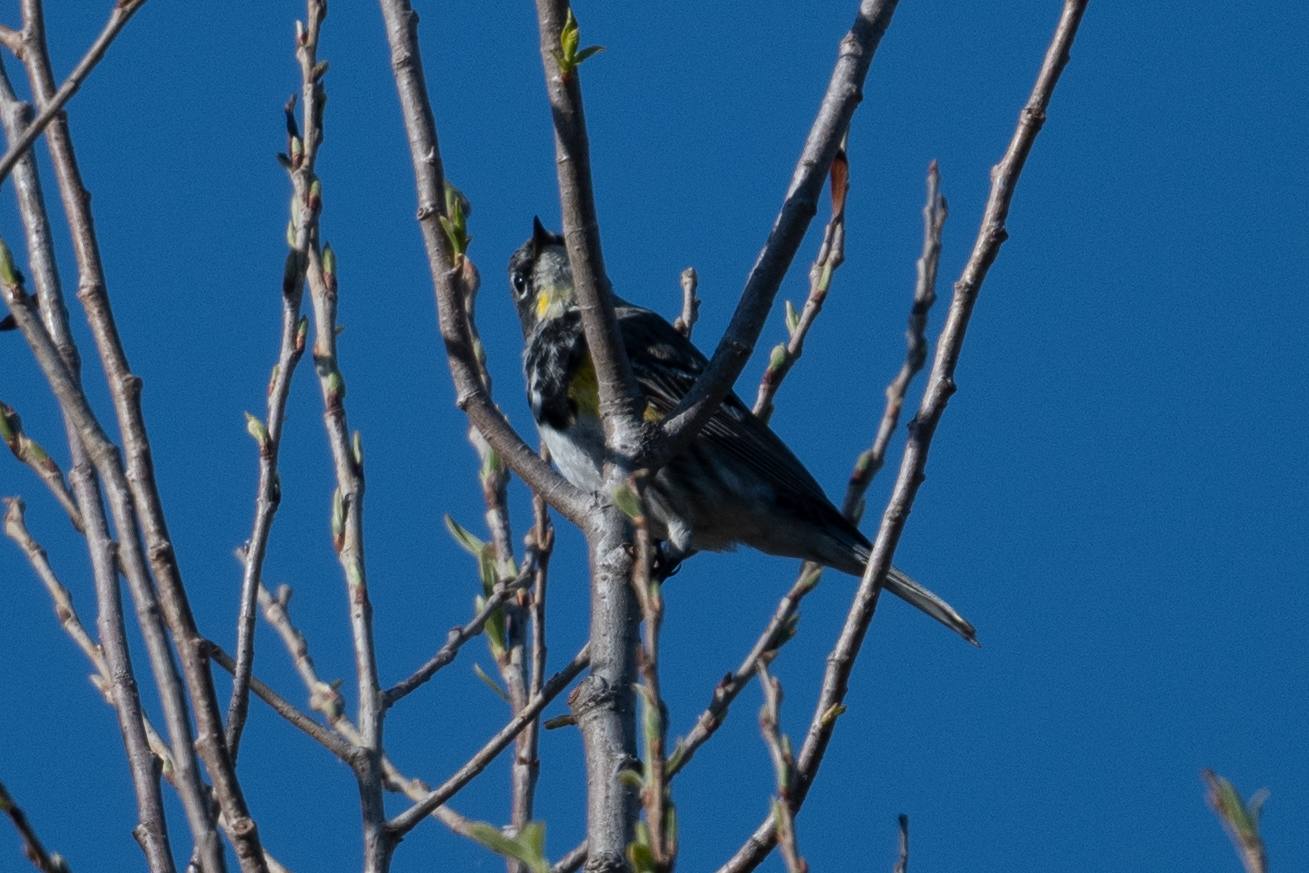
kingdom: Animalia
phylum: Chordata
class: Aves
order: Passeriformes
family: Parulidae
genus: Setophaga
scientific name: Setophaga coronata
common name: Myrtle warbler
